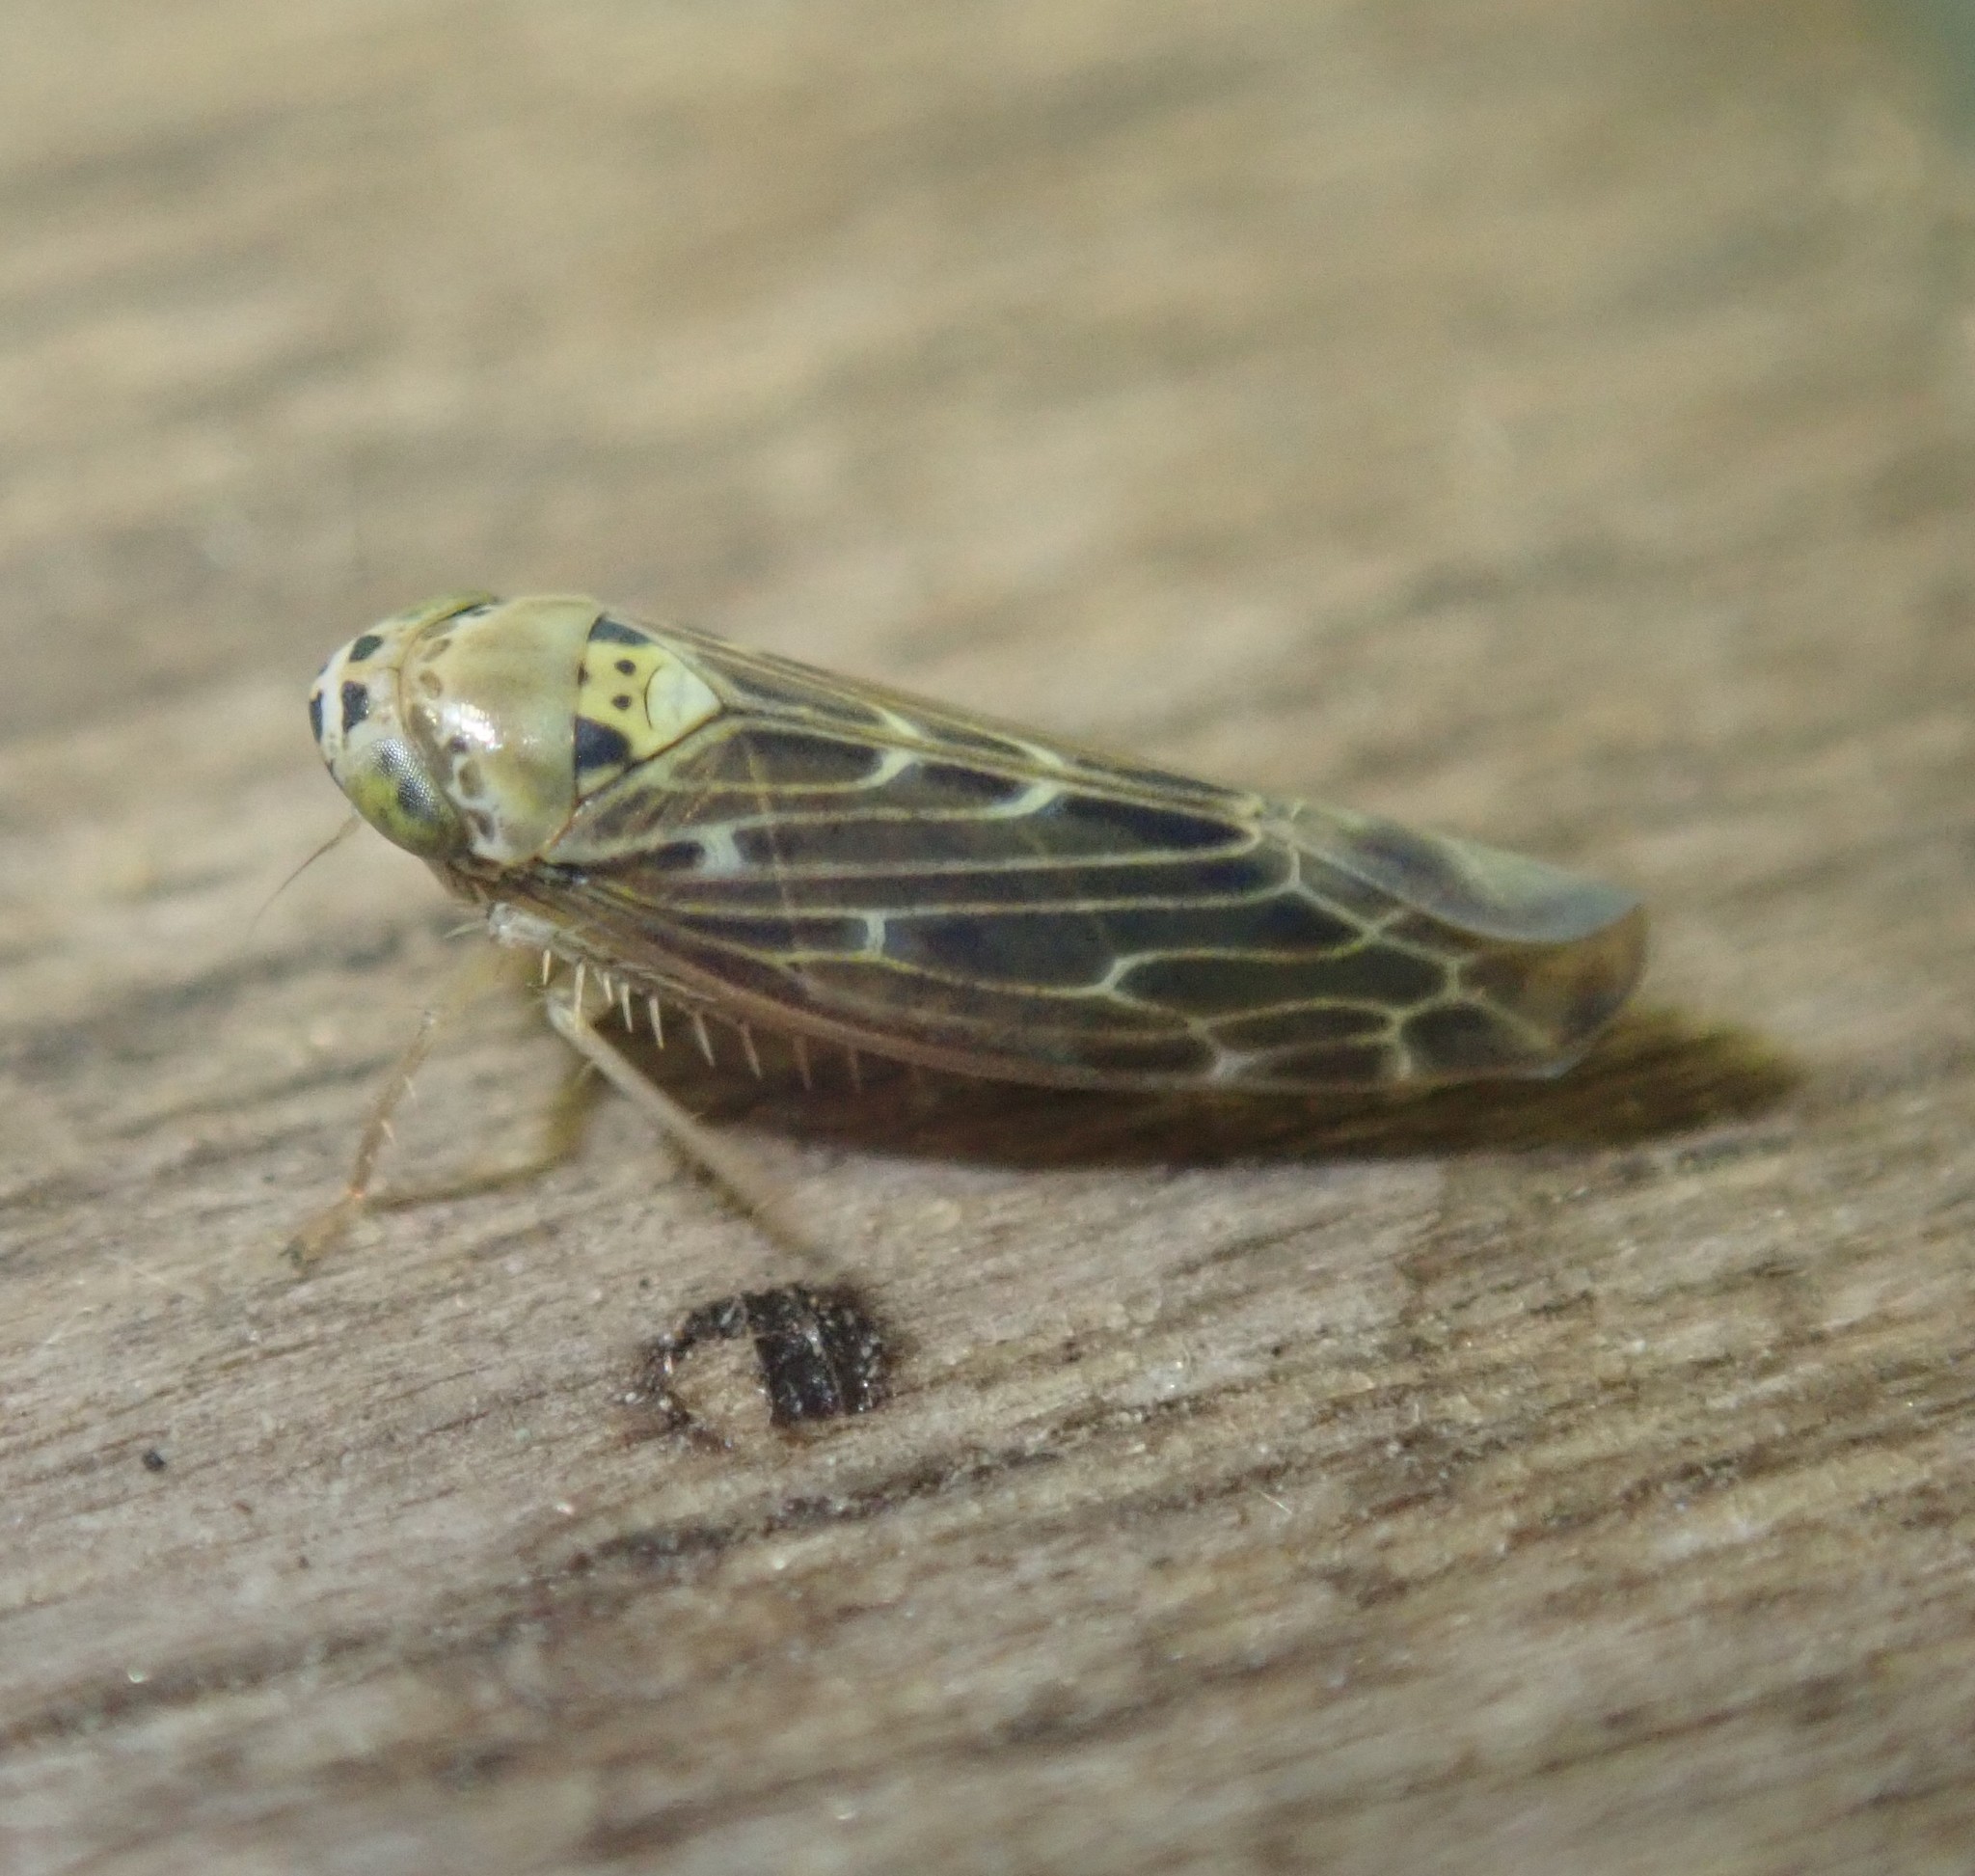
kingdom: Animalia
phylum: Arthropoda
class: Insecta
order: Hemiptera
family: Cicadellidae
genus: Lamprotettix
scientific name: Lamprotettix nitidulus
